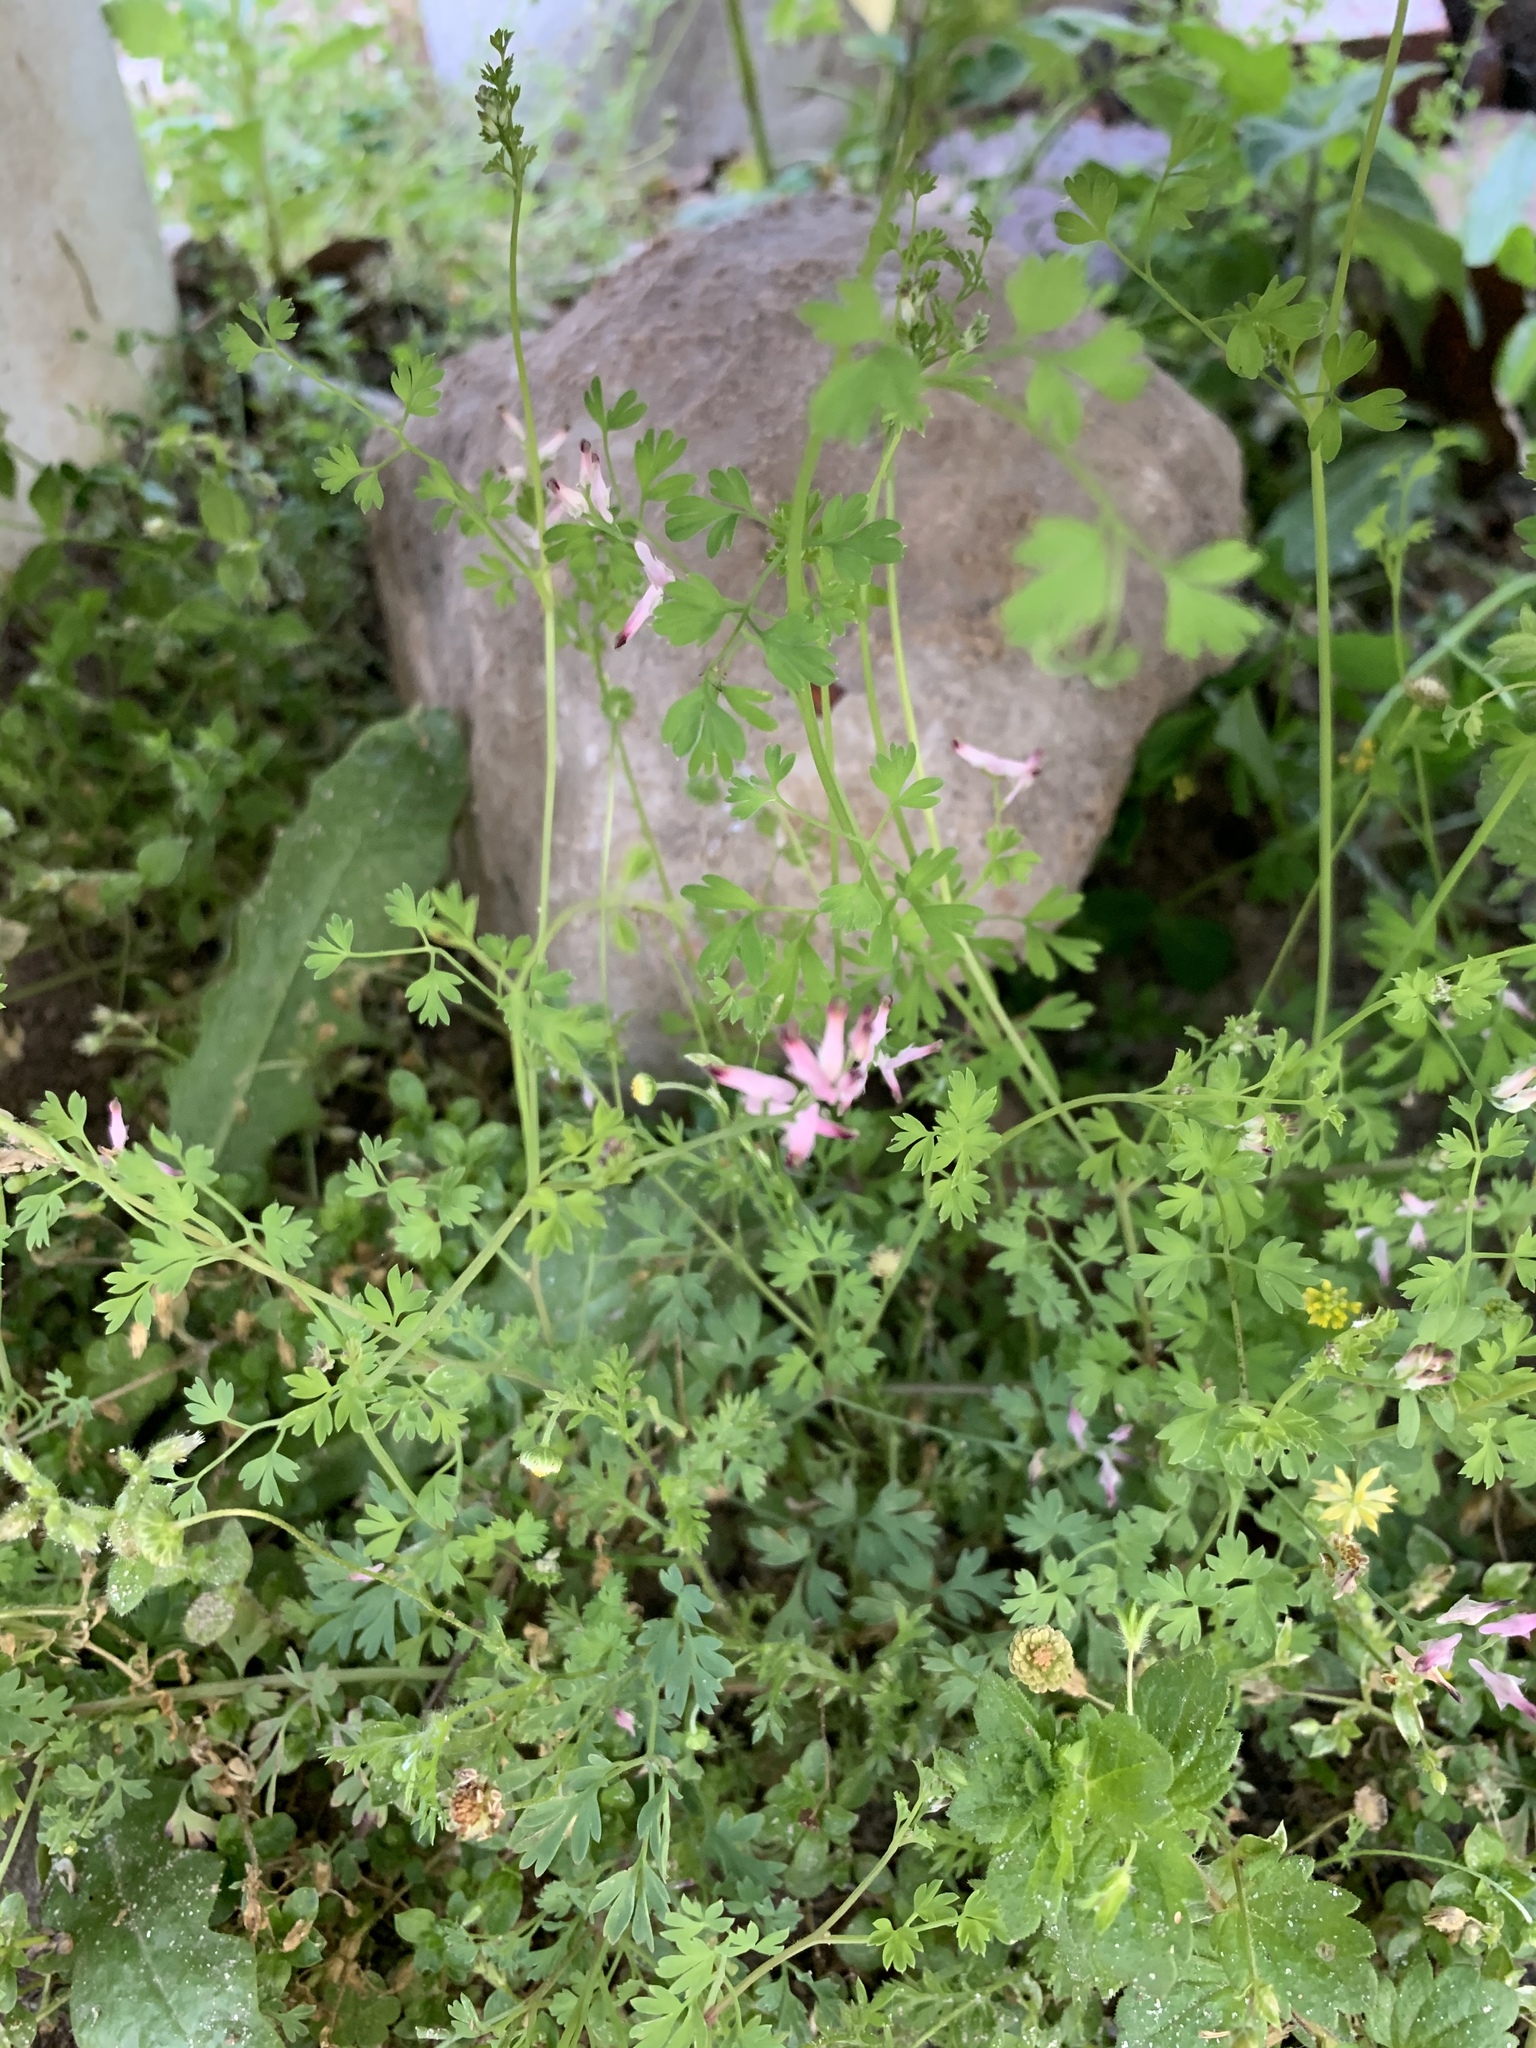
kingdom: Plantae
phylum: Tracheophyta
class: Magnoliopsida
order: Ranunculales
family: Papaveraceae
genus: Fumaria
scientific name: Fumaria muralis
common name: Common ramping-fumitory
